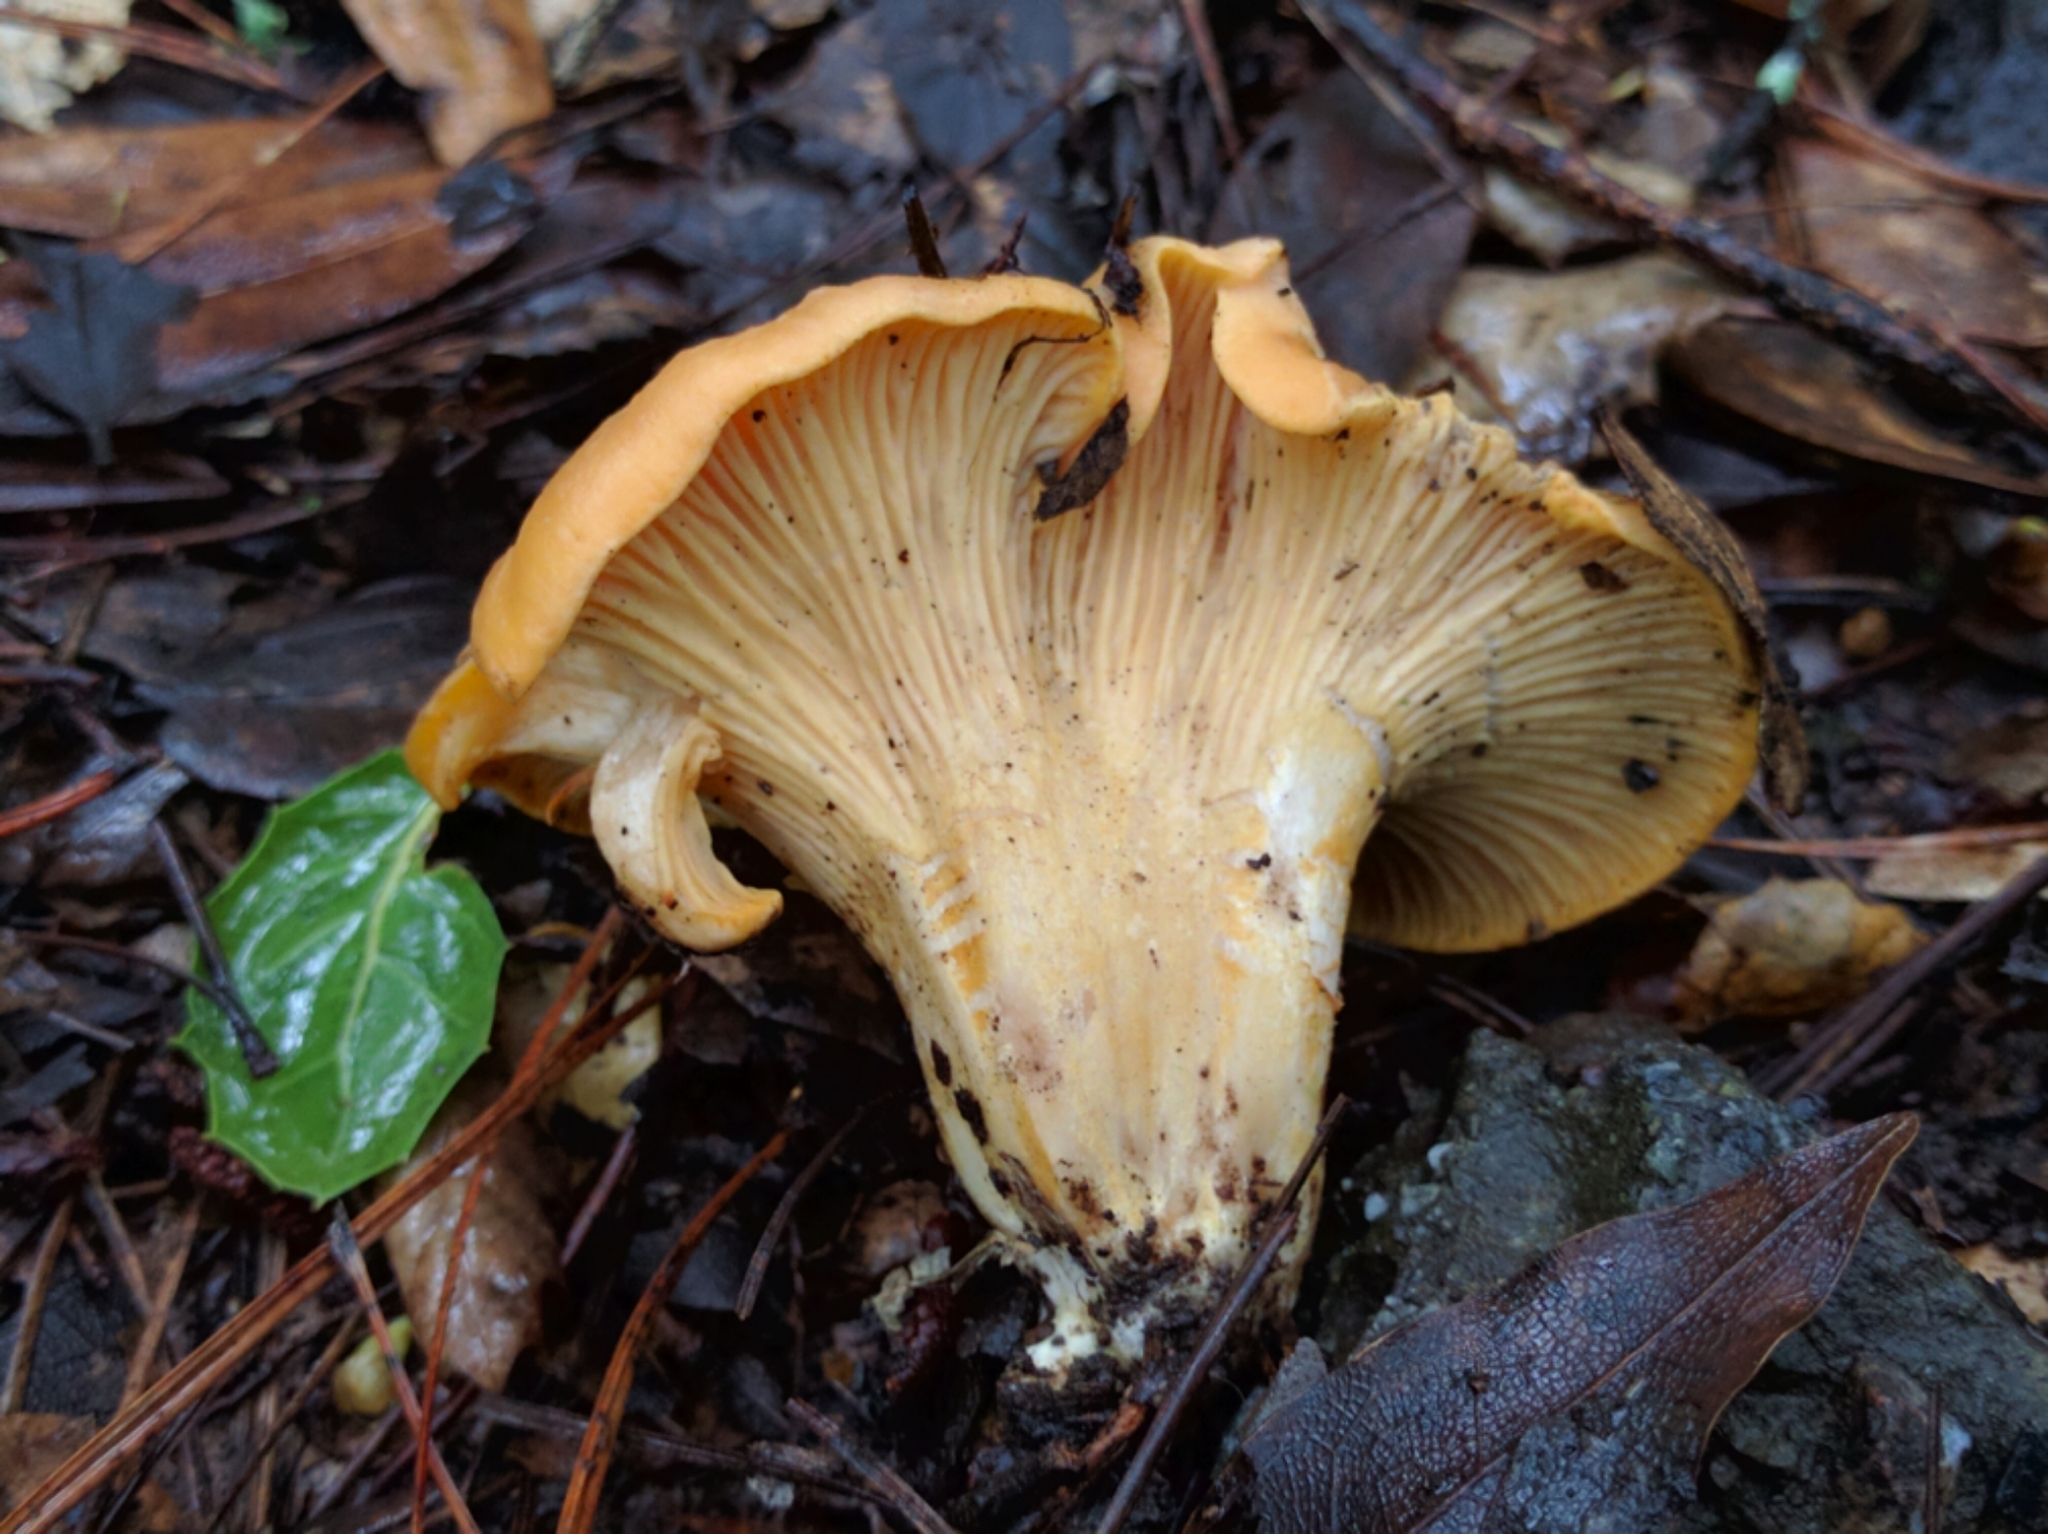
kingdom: Fungi
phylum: Basidiomycota
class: Agaricomycetes
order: Cantharellales
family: Hydnaceae
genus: Cantharellus
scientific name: Cantharellus californicus
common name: California golden chanterelle
